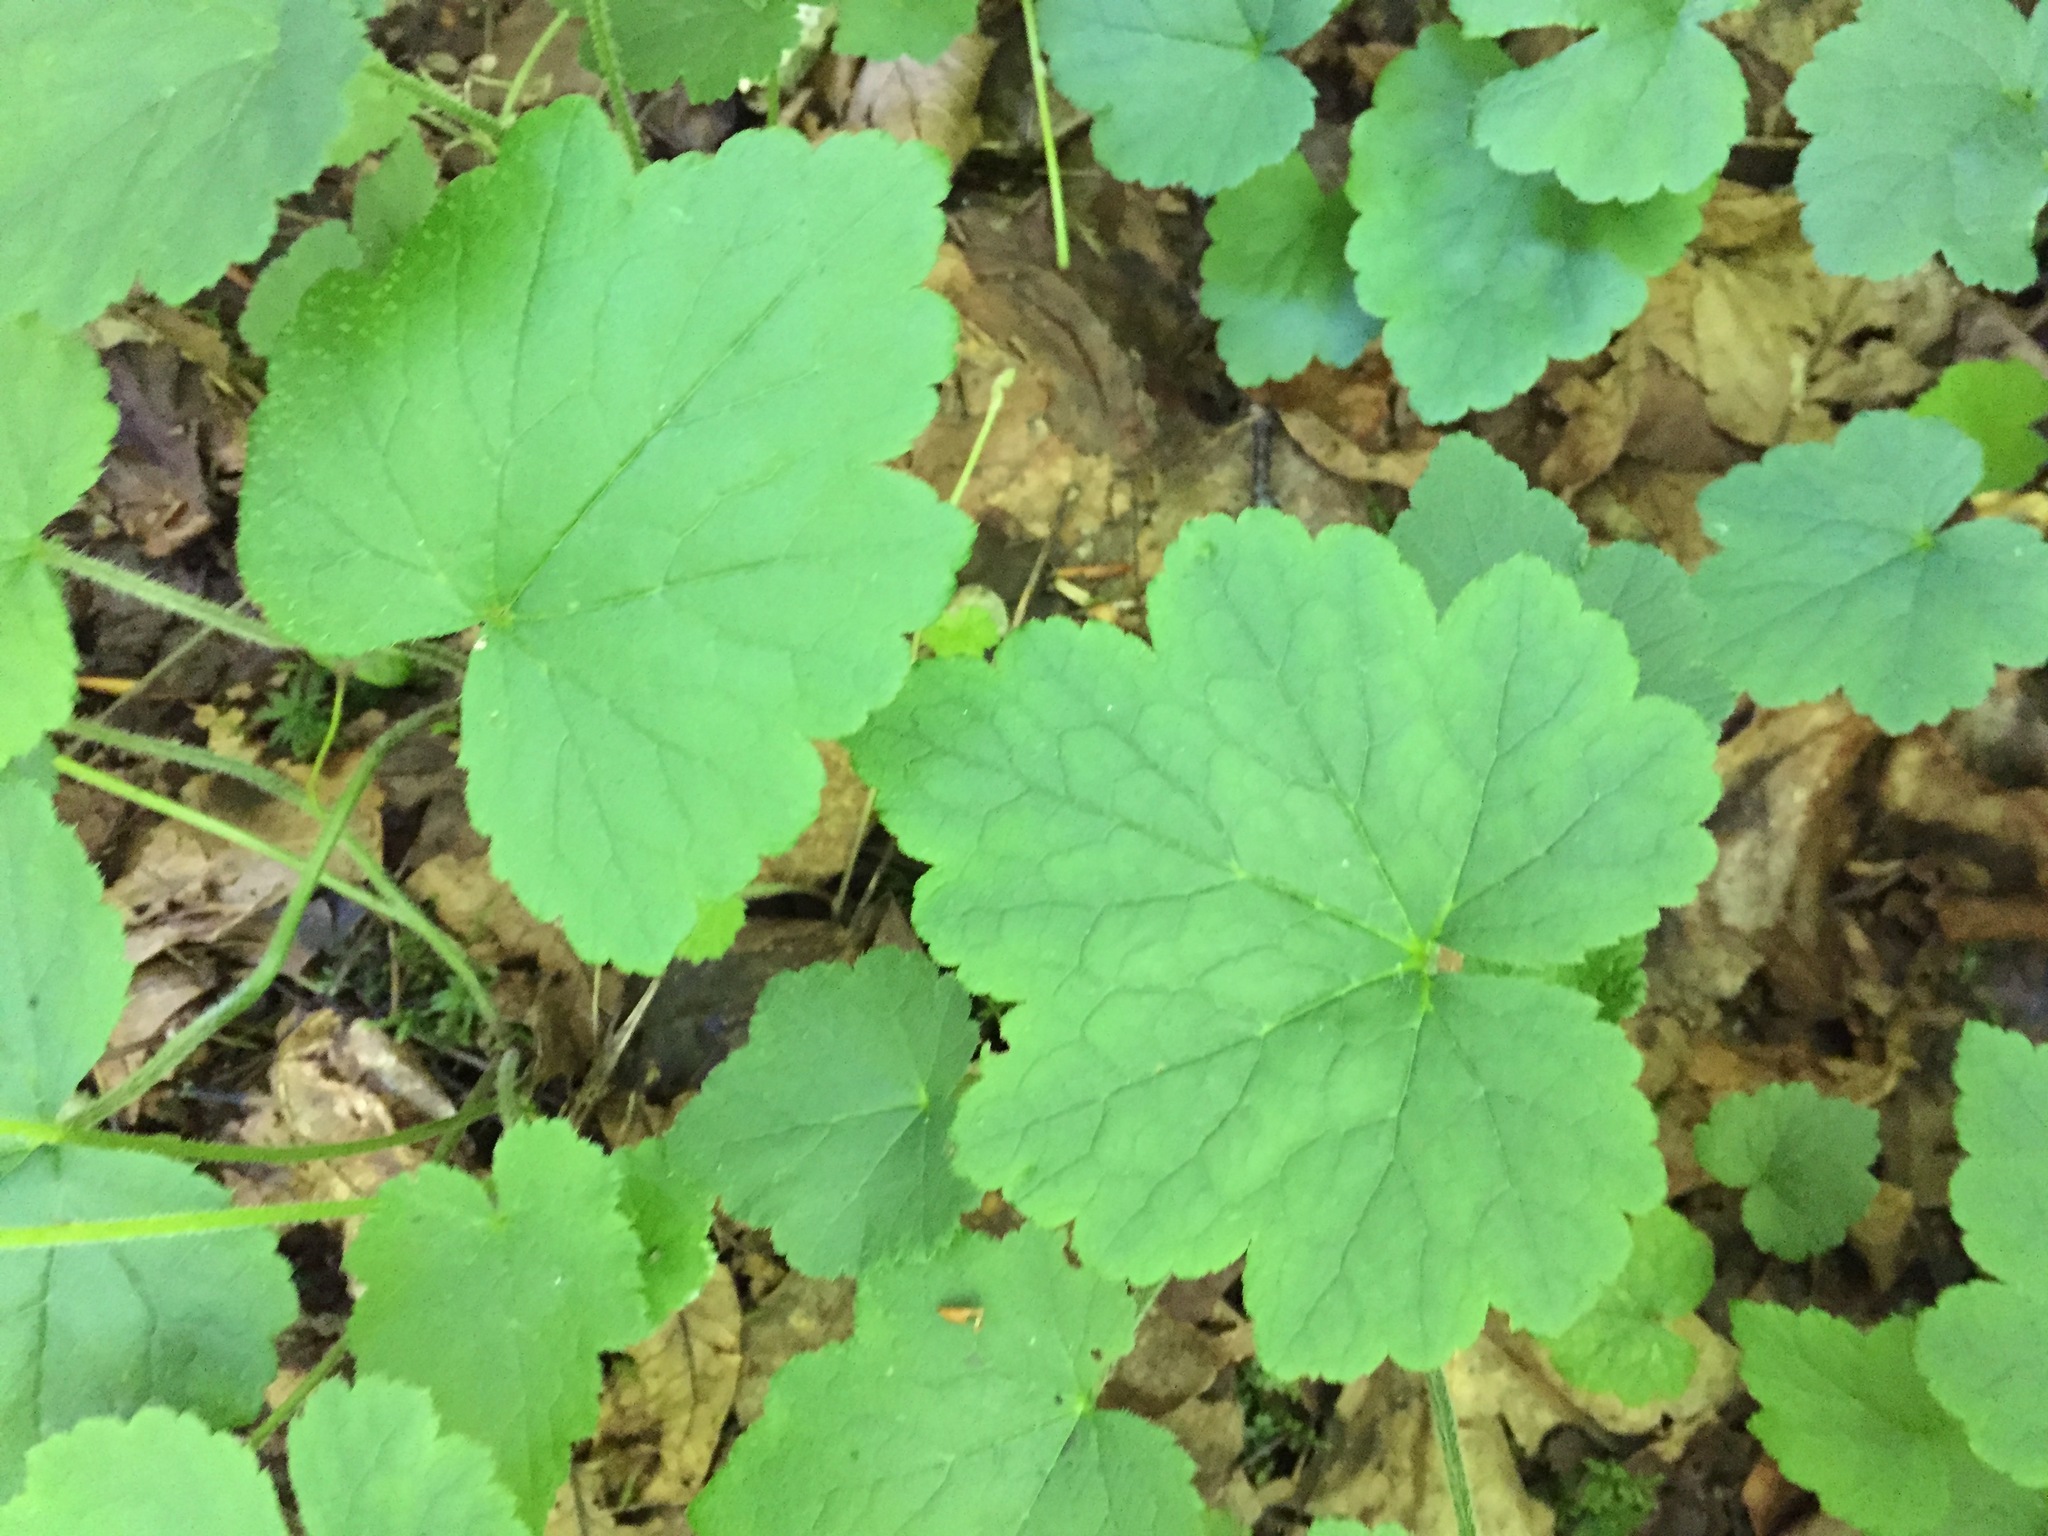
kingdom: Plantae
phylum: Tracheophyta
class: Magnoliopsida
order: Saxifragales
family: Saxifragaceae
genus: Tiarella
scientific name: Tiarella stolonifera
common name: Stoloniferous foamflower
